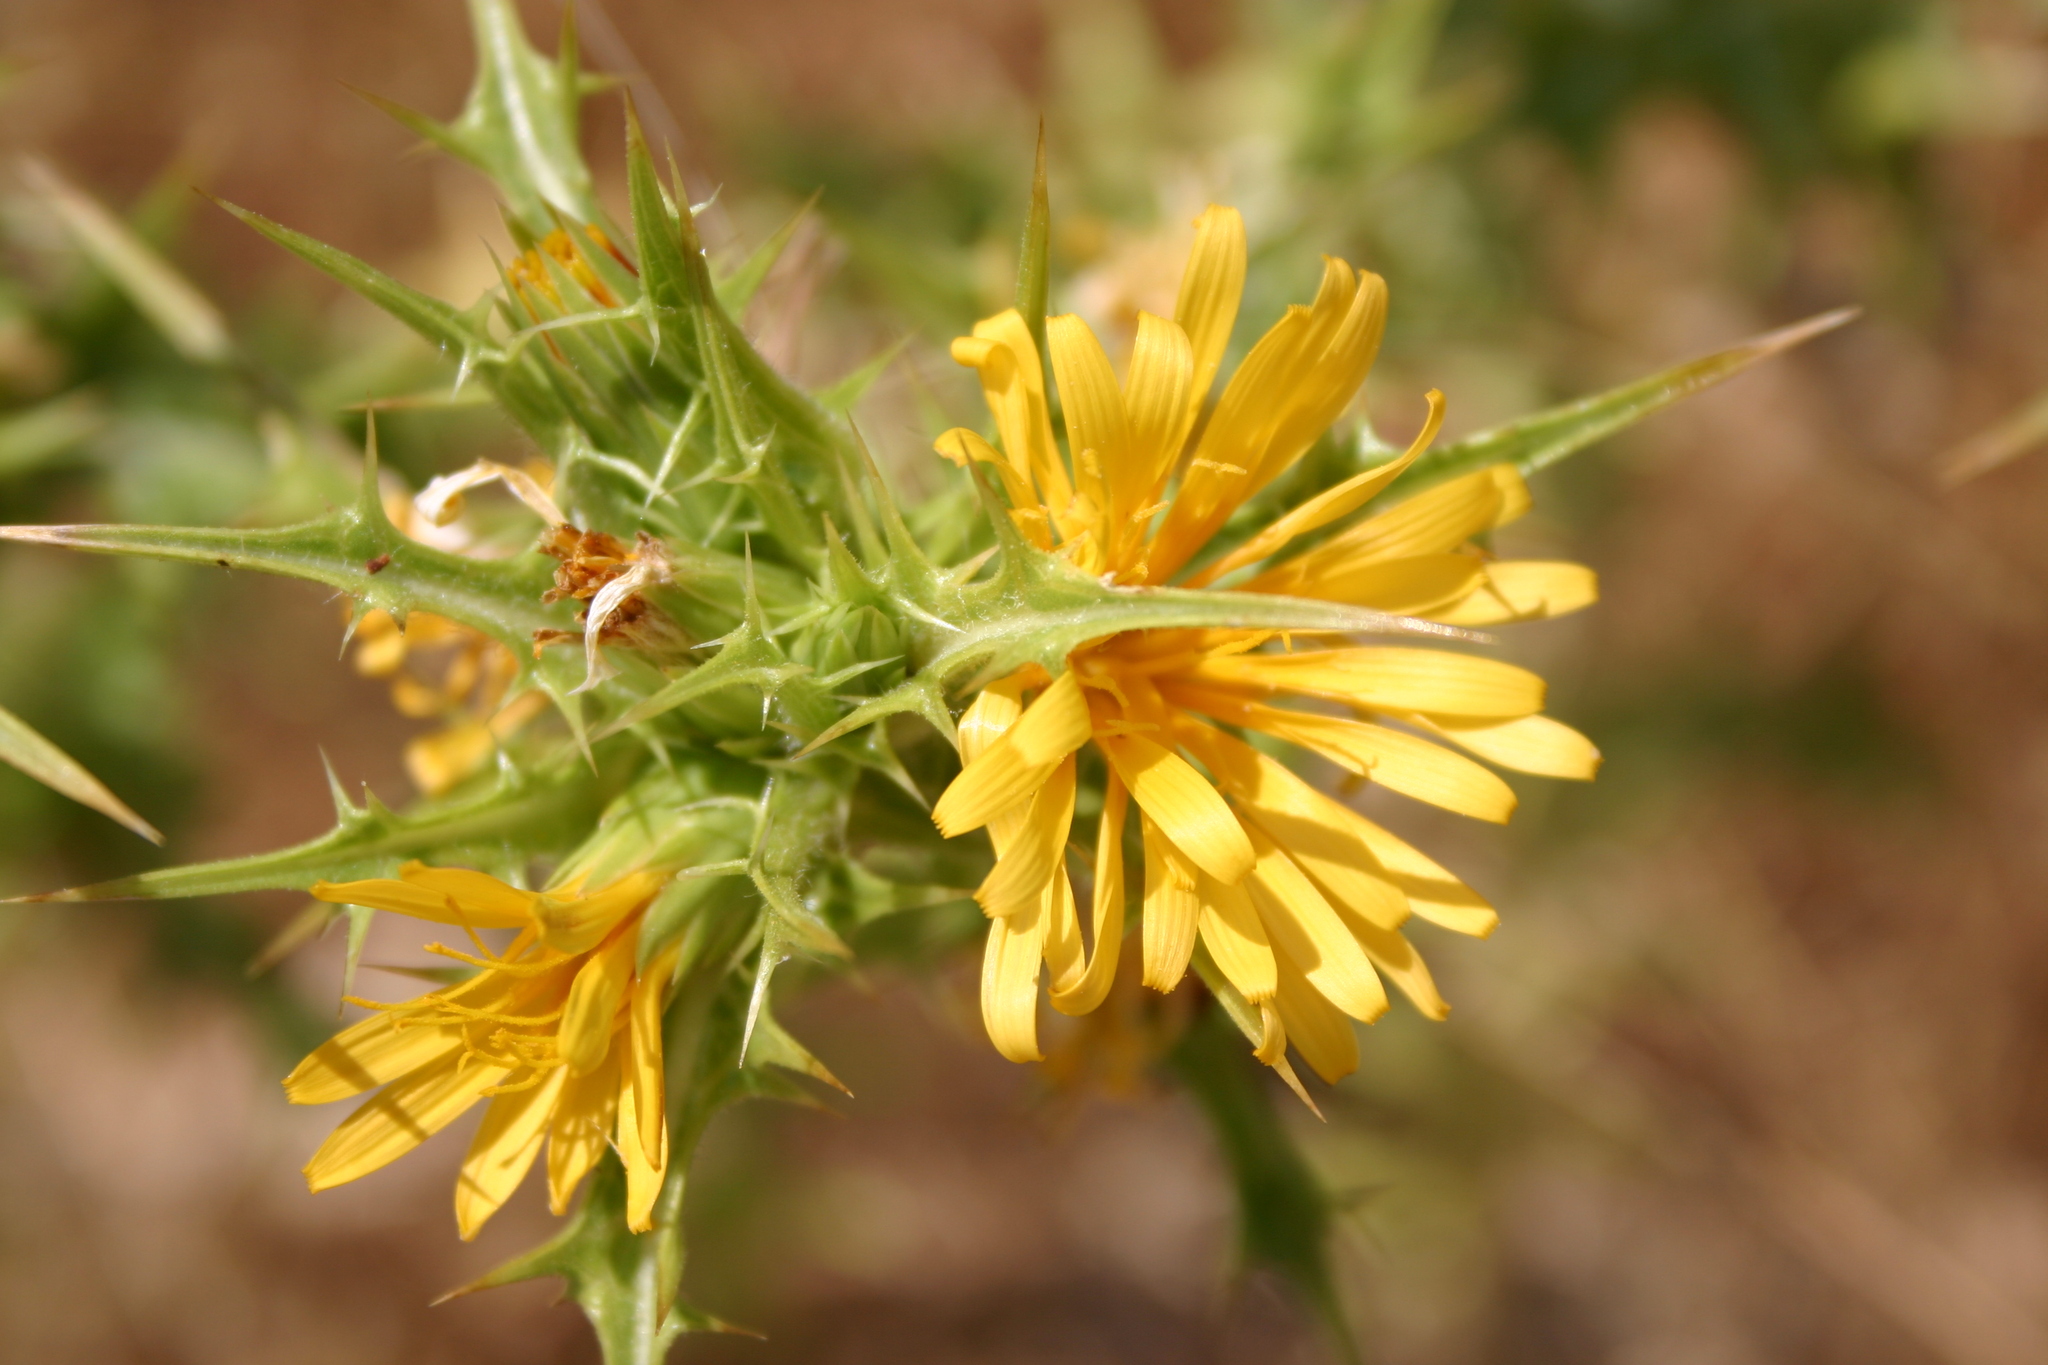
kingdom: Plantae
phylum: Tracheophyta
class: Magnoliopsida
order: Asterales
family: Asteraceae
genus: Scolymus
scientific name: Scolymus hispanicus
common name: Golden thistle
